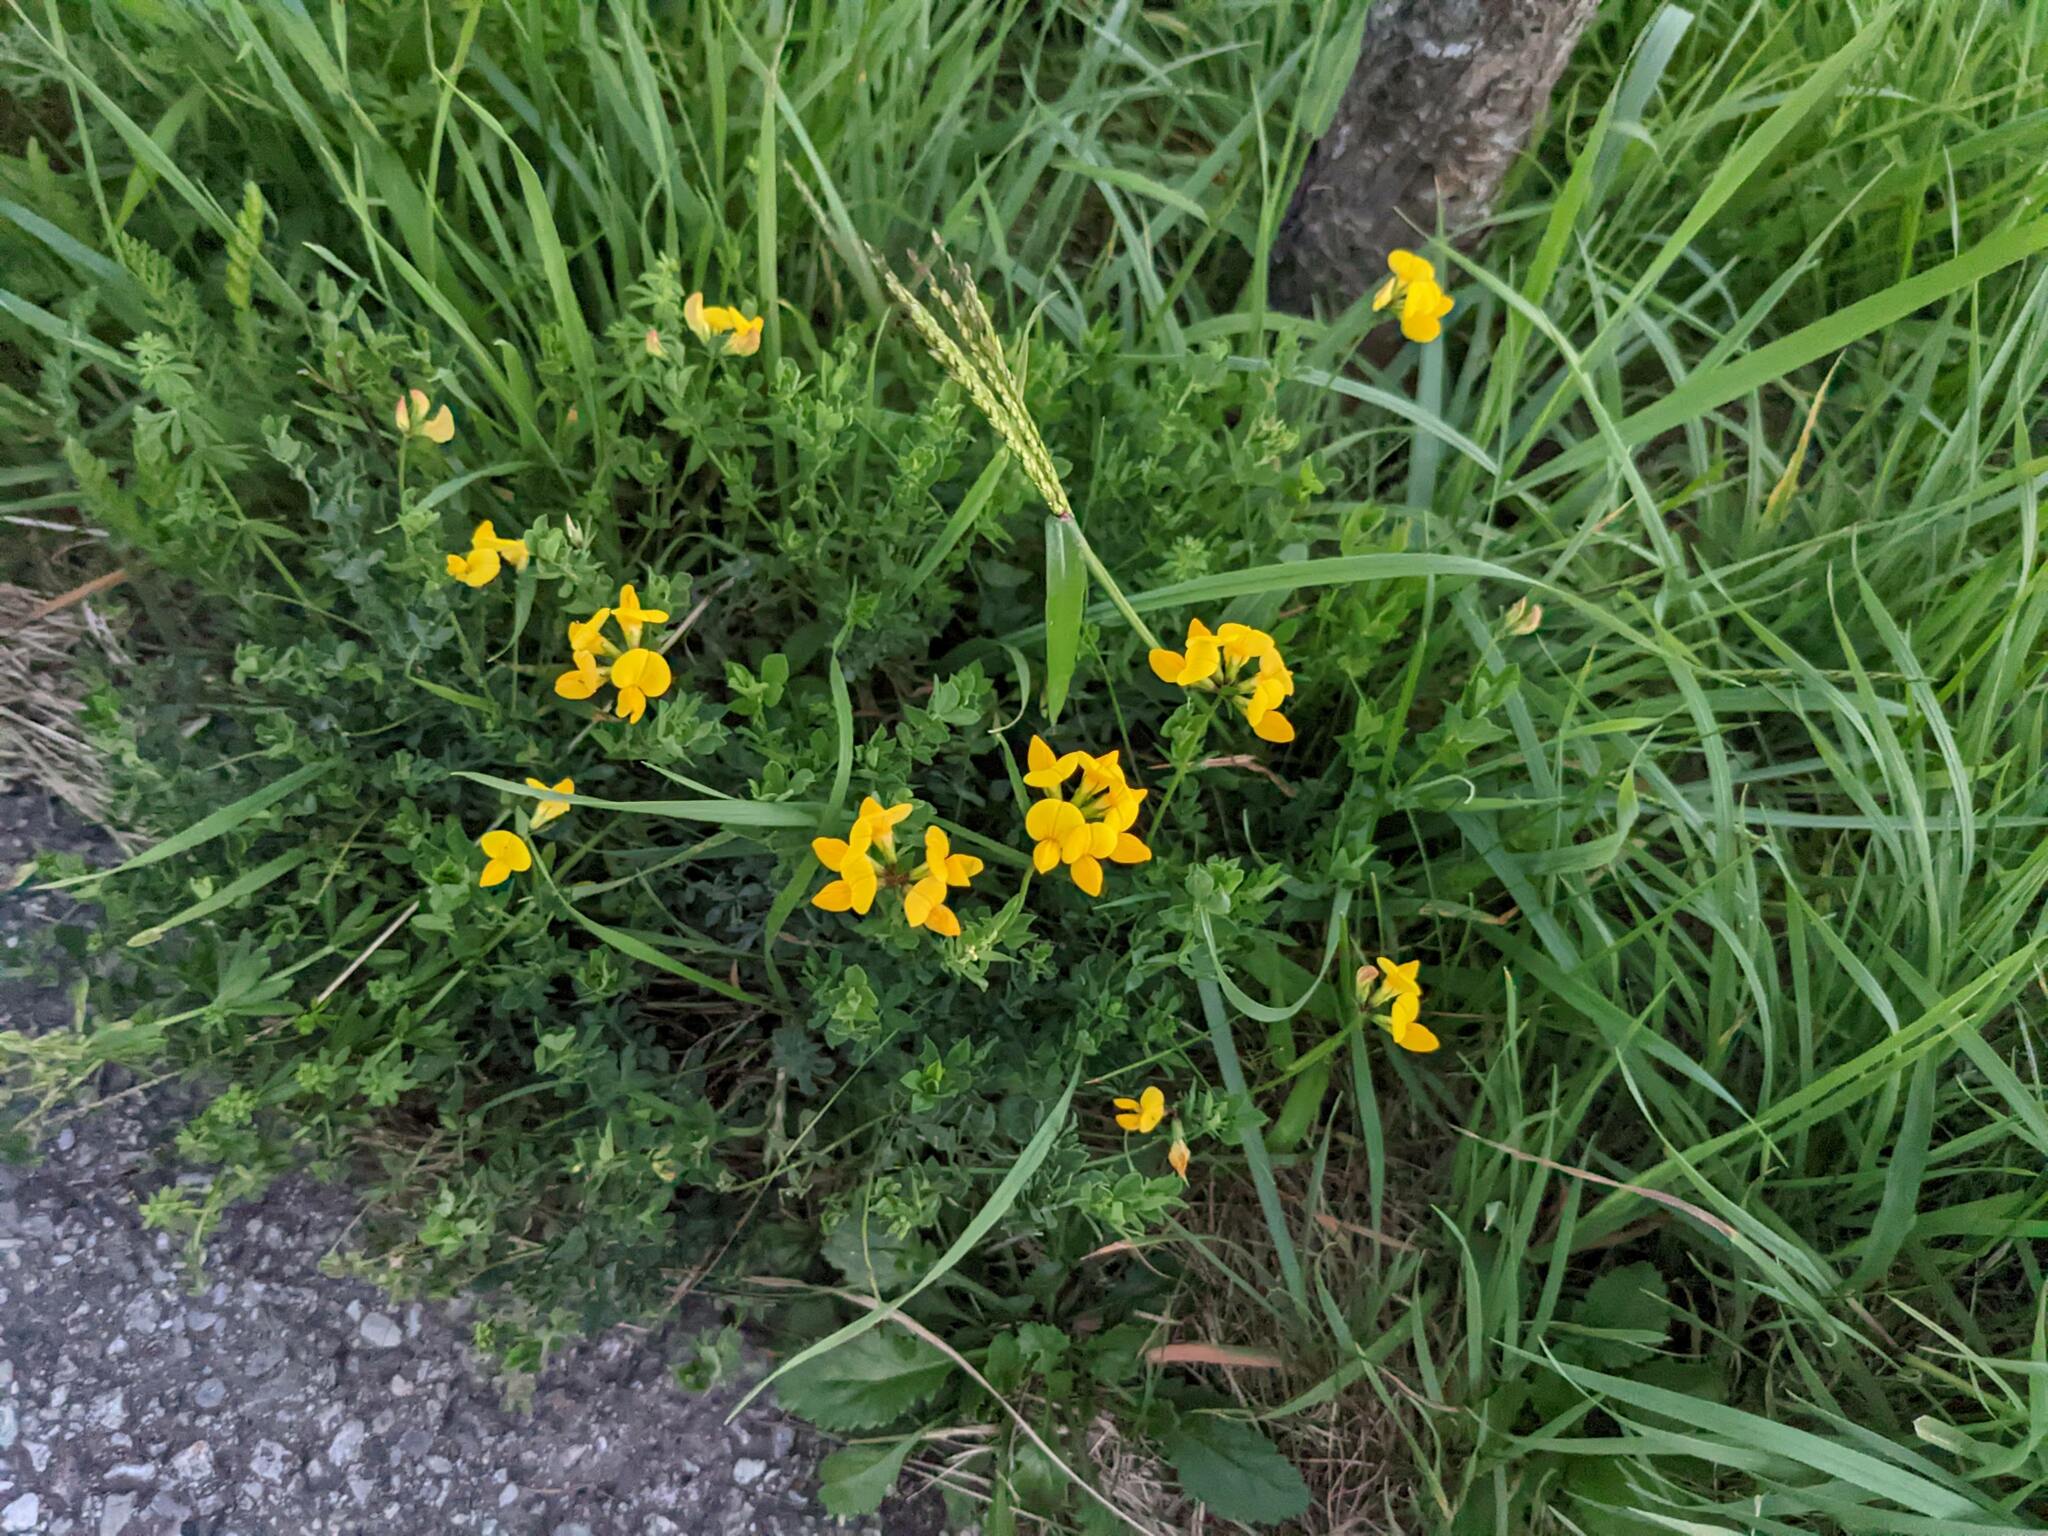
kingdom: Plantae
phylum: Tracheophyta
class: Magnoliopsida
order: Fabales
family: Fabaceae
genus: Lotus
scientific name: Lotus corniculatus
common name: Common bird's-foot-trefoil
